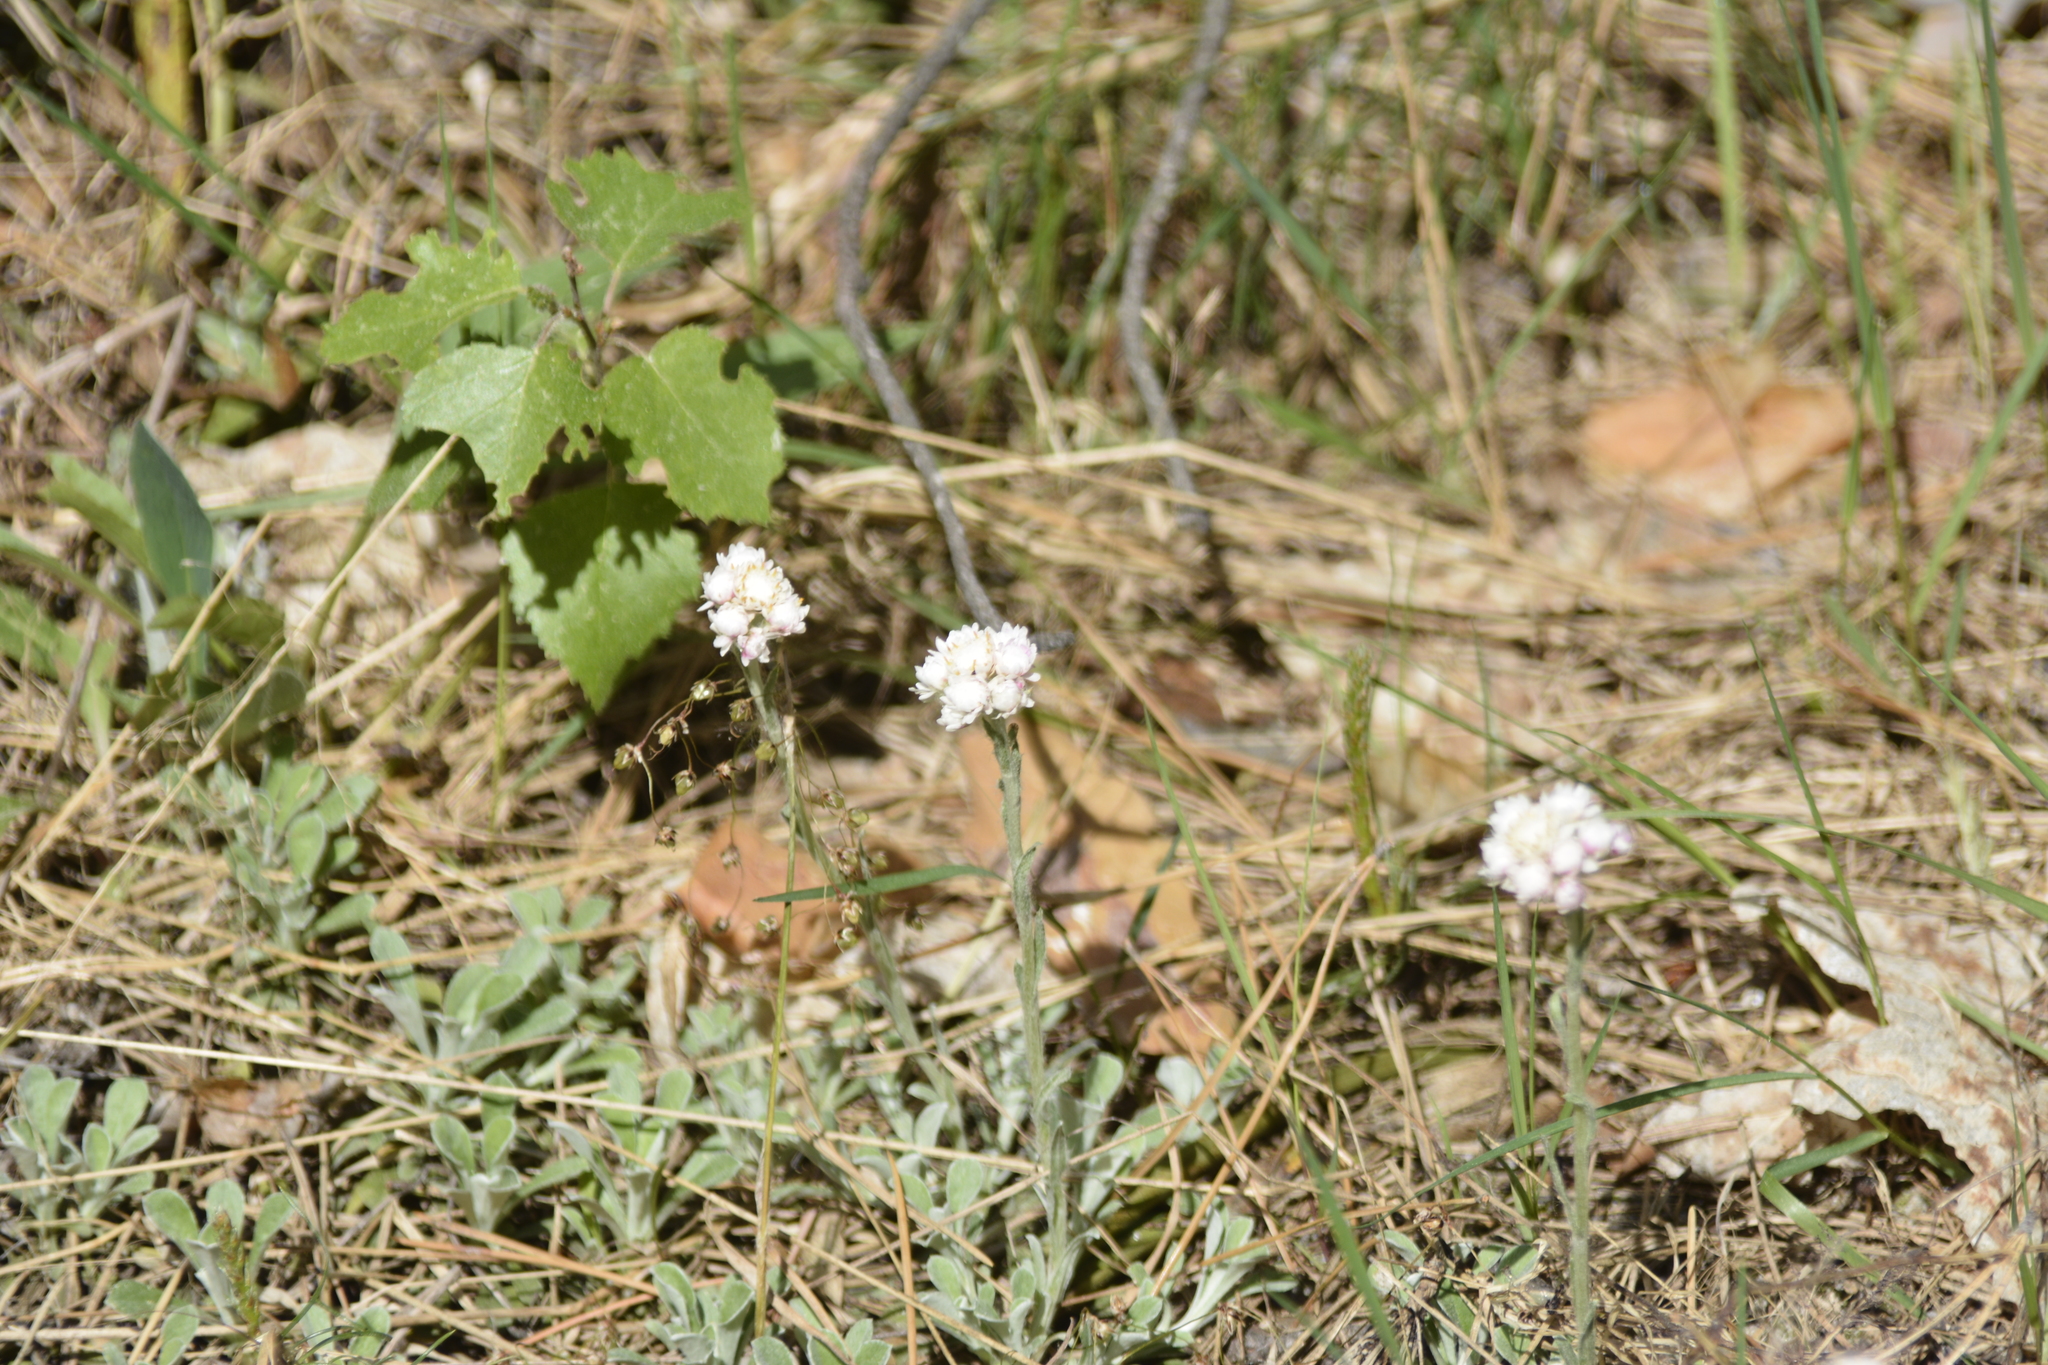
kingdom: Plantae
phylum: Tracheophyta
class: Magnoliopsida
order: Asterales
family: Asteraceae
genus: Antennaria
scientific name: Antennaria dioica
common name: Mountain everlasting
